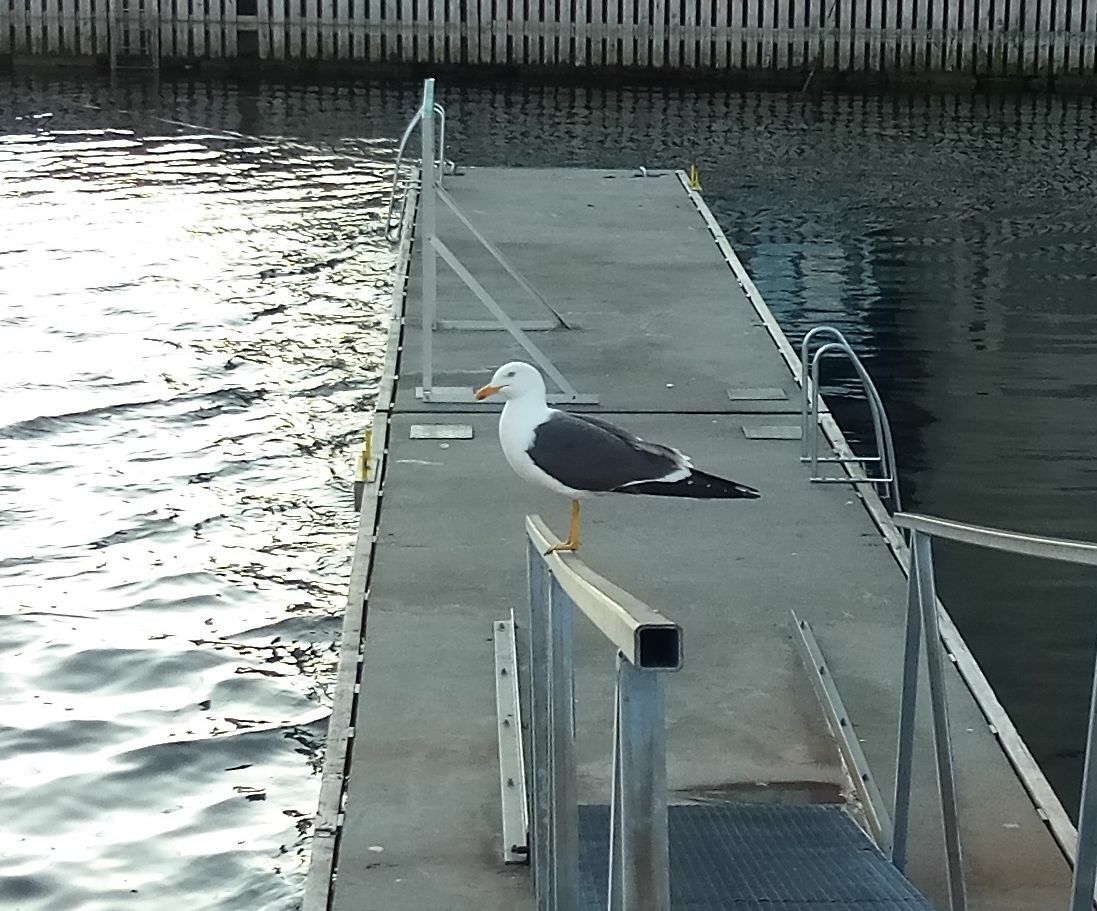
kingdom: Animalia
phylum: Chordata
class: Aves
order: Charadriiformes
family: Laridae
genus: Larus
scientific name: Larus fuscus
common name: Lesser black-backed gull
